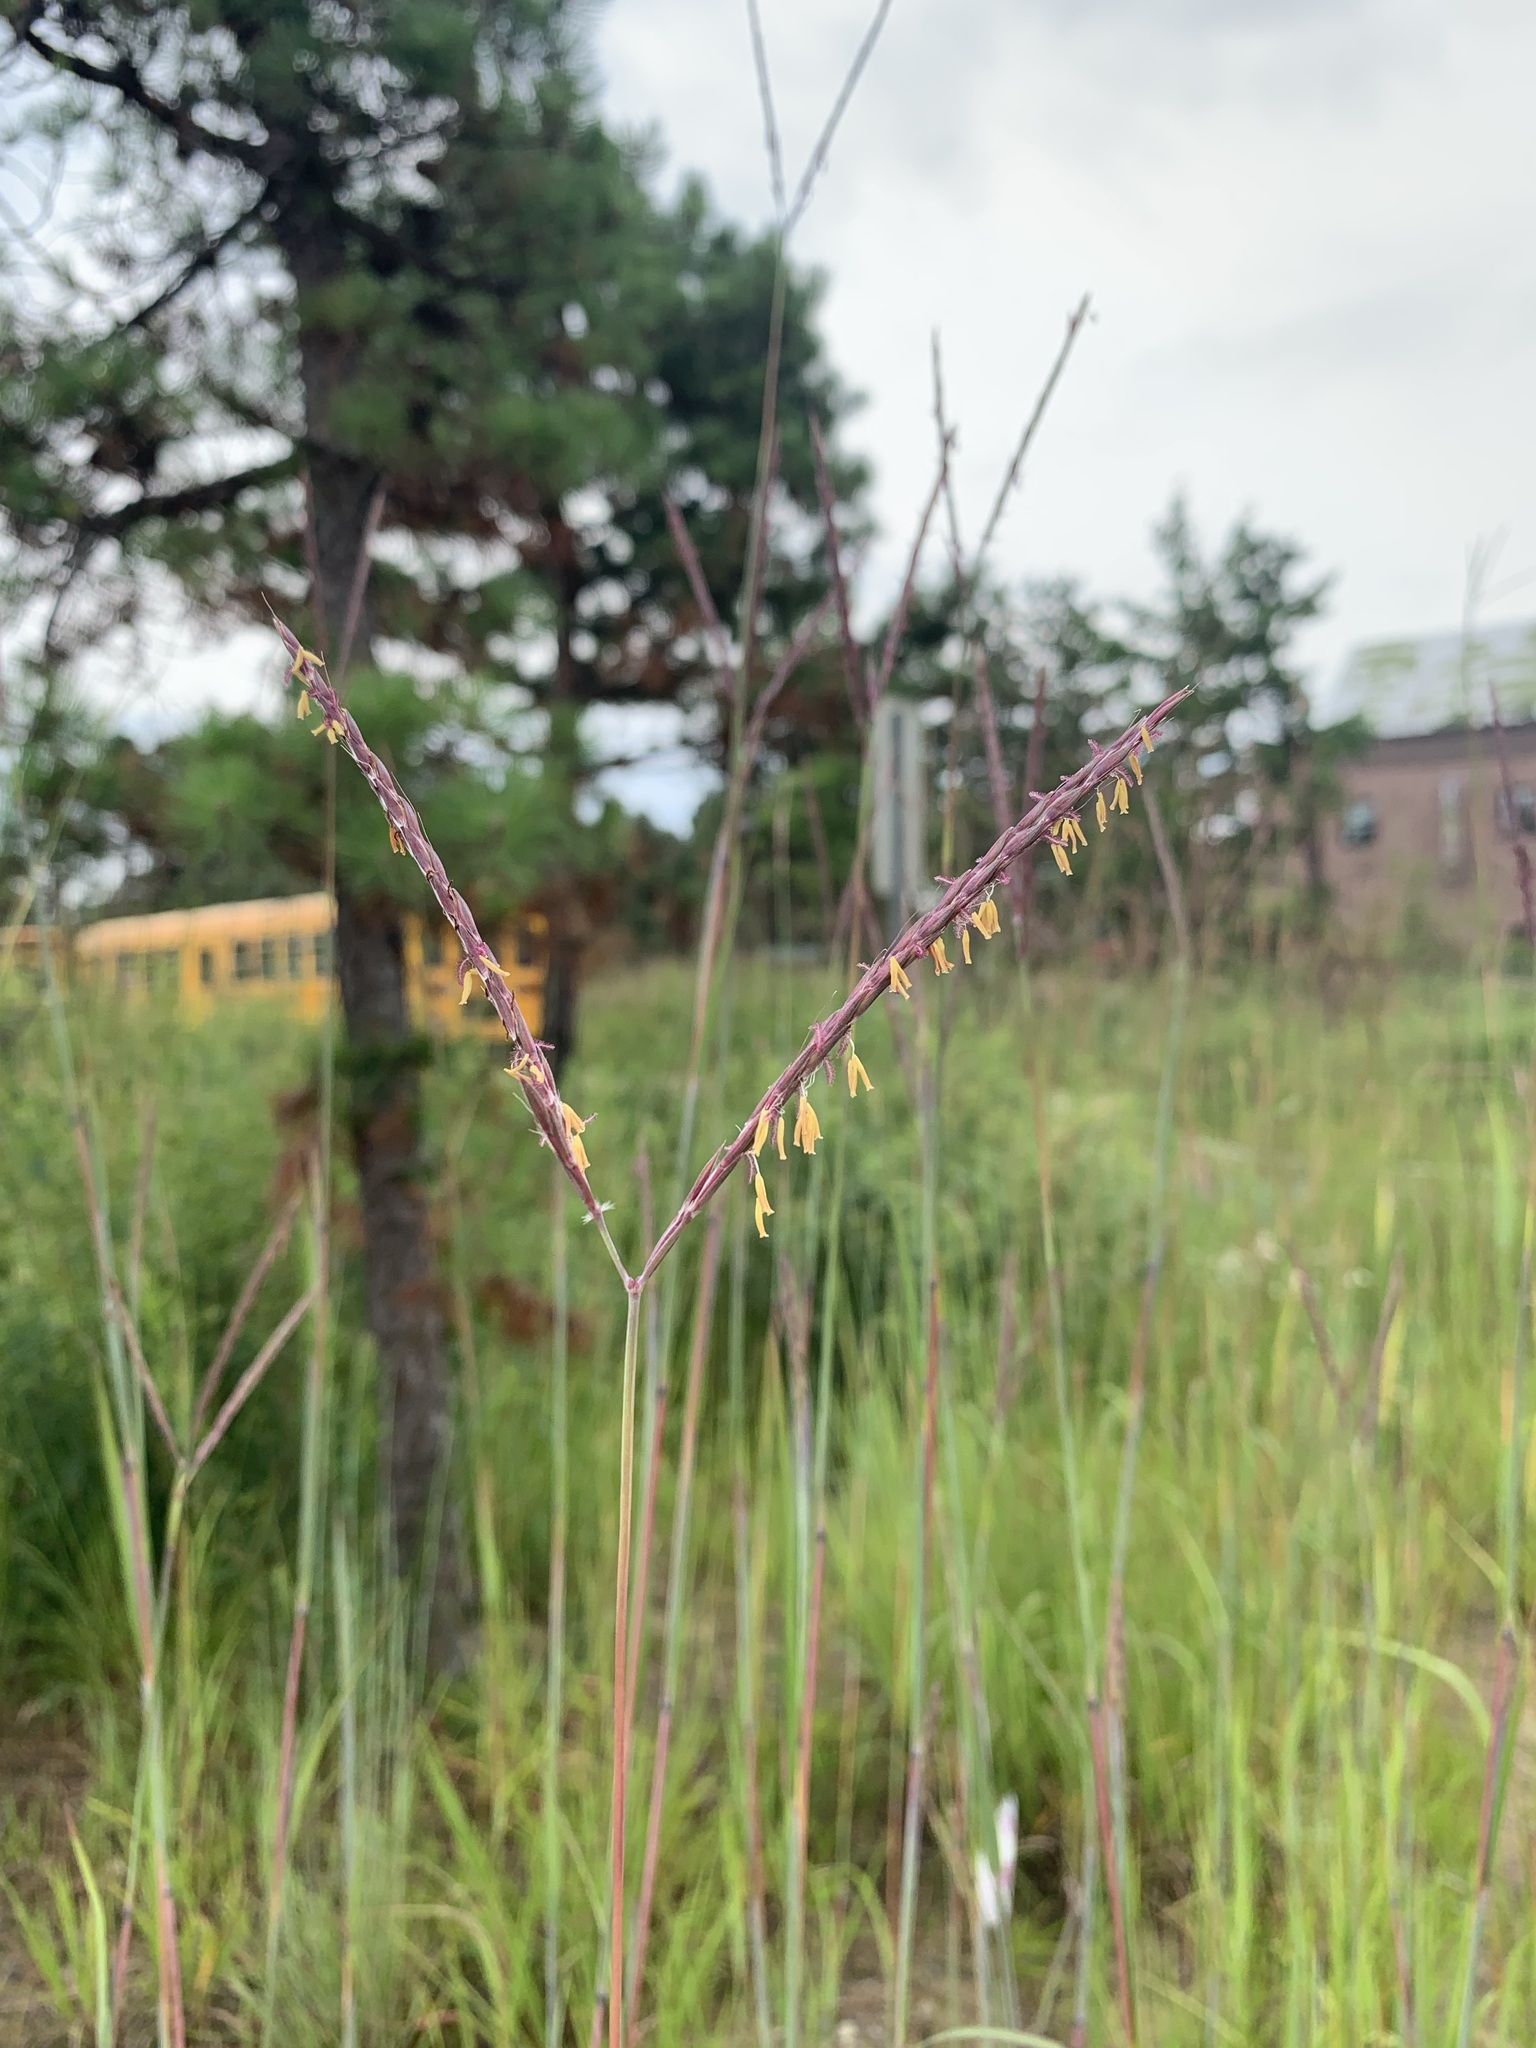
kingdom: Plantae
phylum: Tracheophyta
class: Liliopsida
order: Poales
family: Poaceae
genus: Andropogon
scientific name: Andropogon gerardi
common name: Big bluestem
